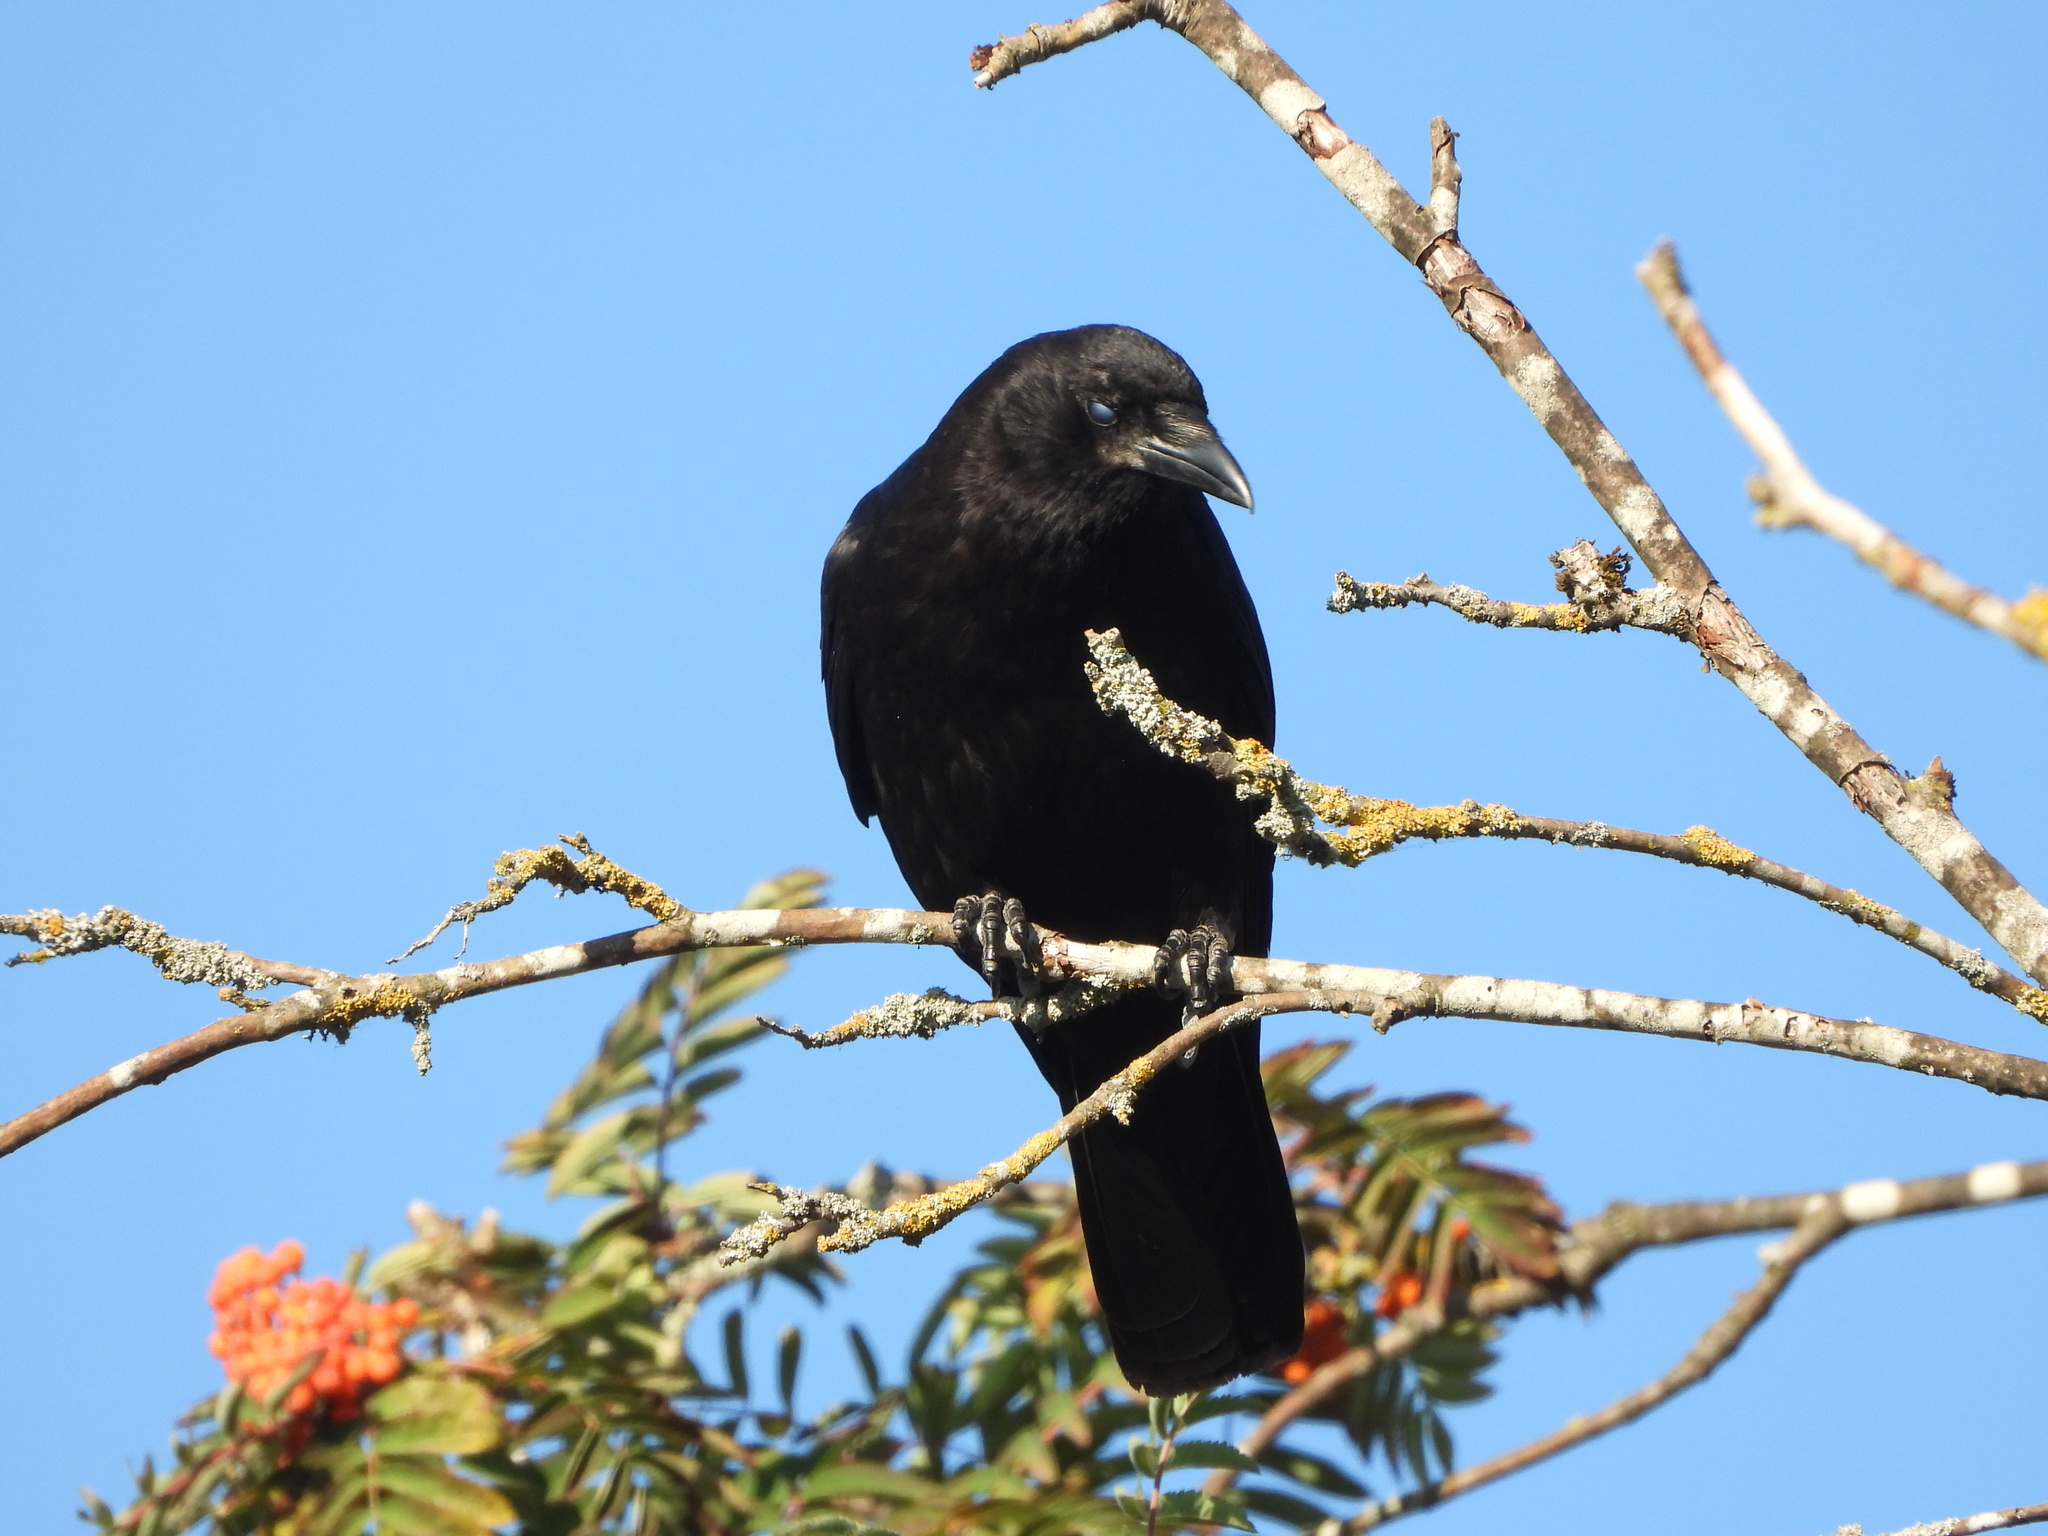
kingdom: Animalia
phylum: Chordata
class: Aves
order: Passeriformes
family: Corvidae
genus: Corvus
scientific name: Corvus brachyrhynchos
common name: American crow
